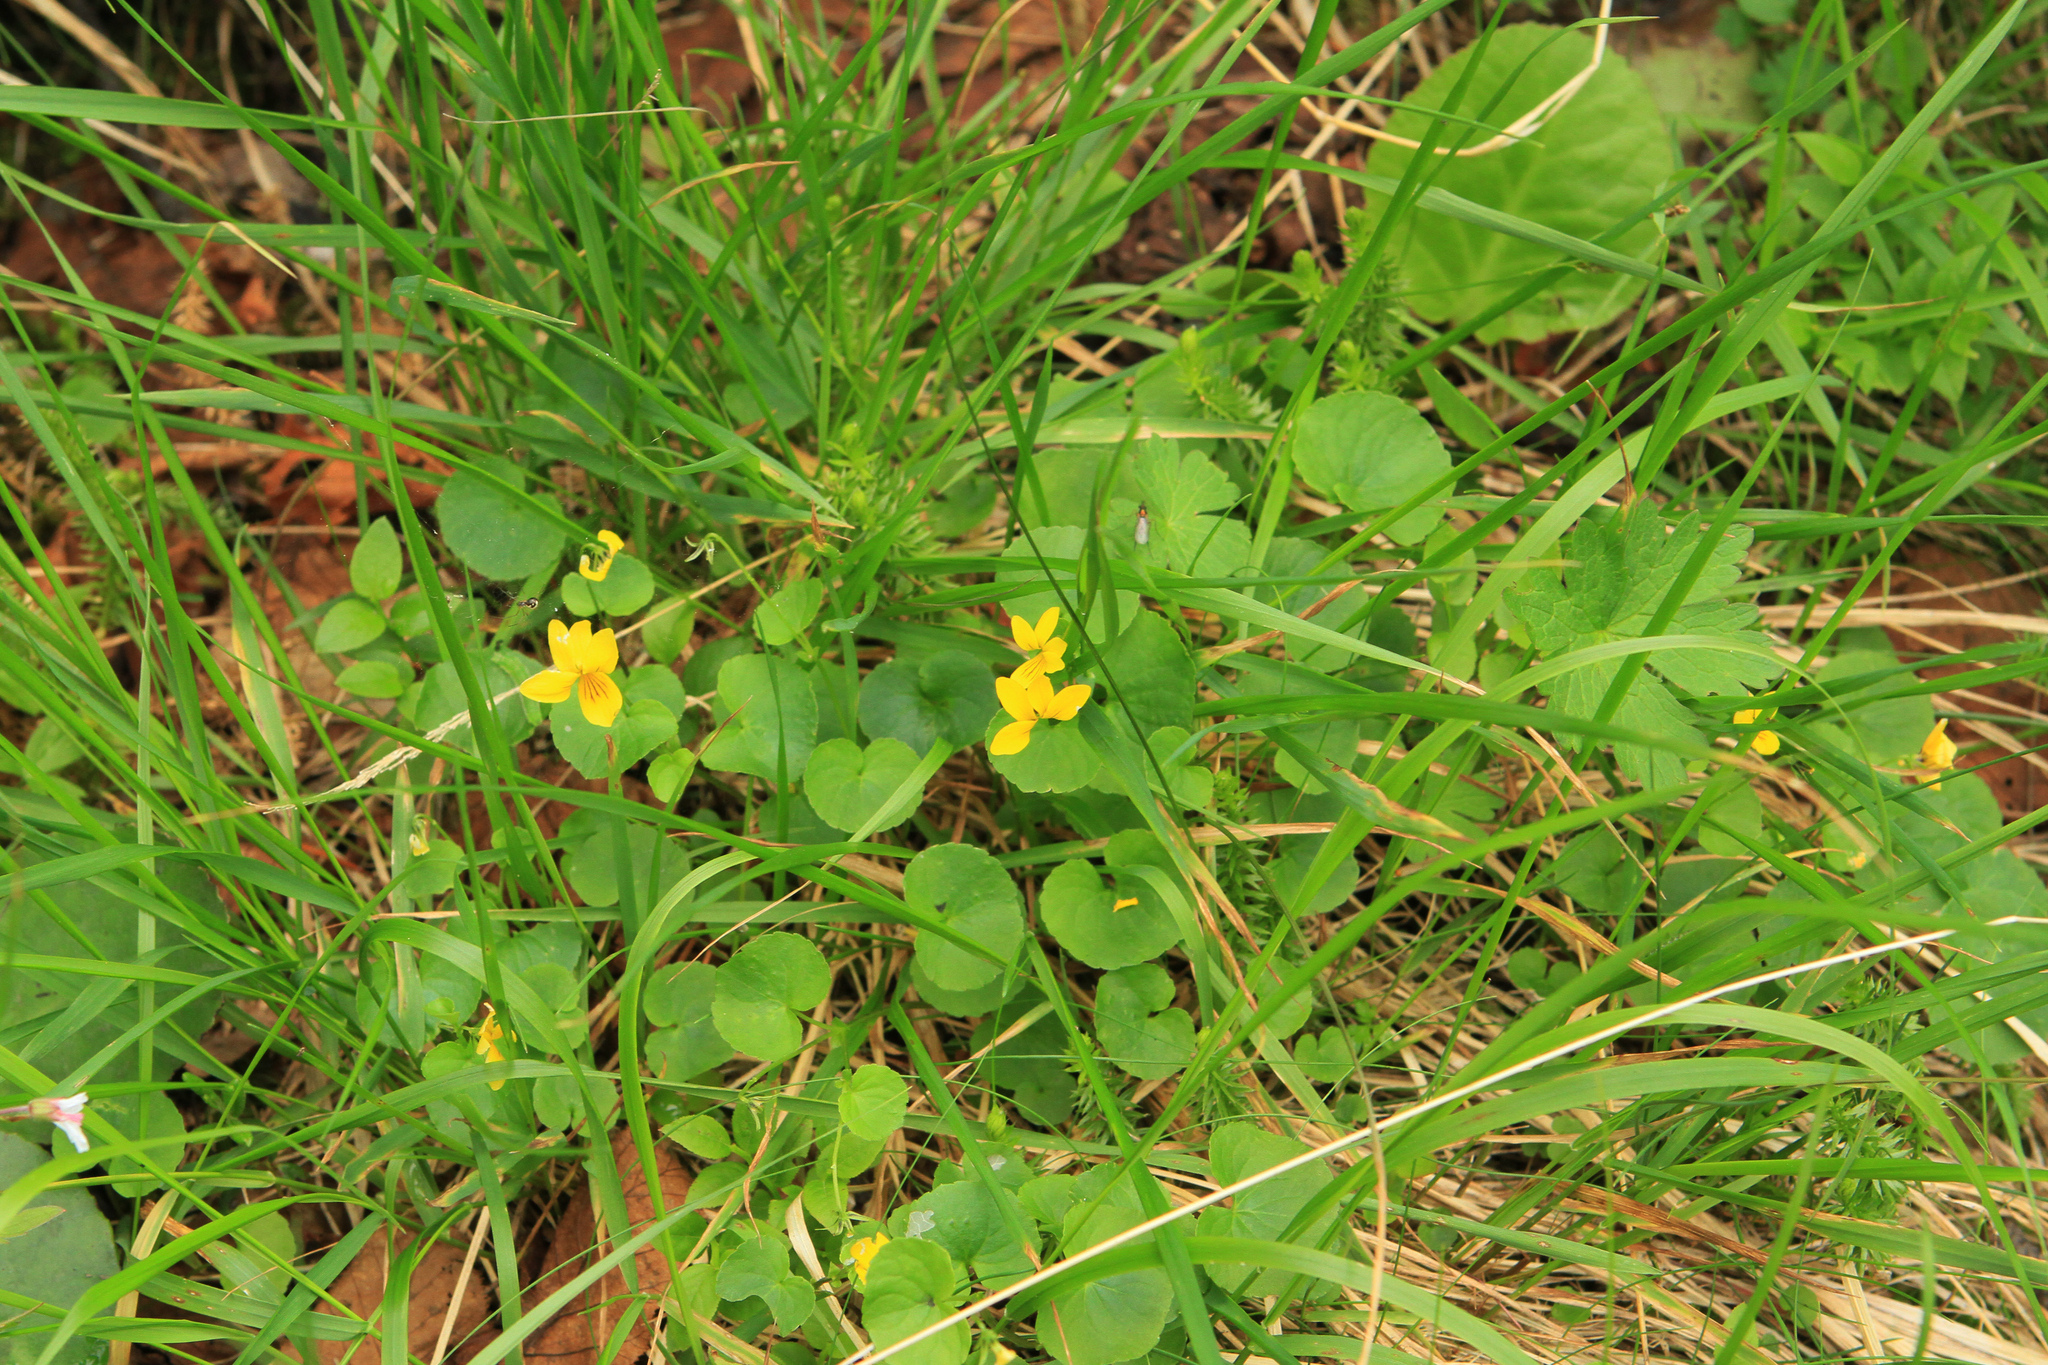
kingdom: Plantae
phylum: Tracheophyta
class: Magnoliopsida
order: Malpighiales
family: Violaceae
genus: Viola
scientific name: Viola biflora
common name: Alpine yellow violet
